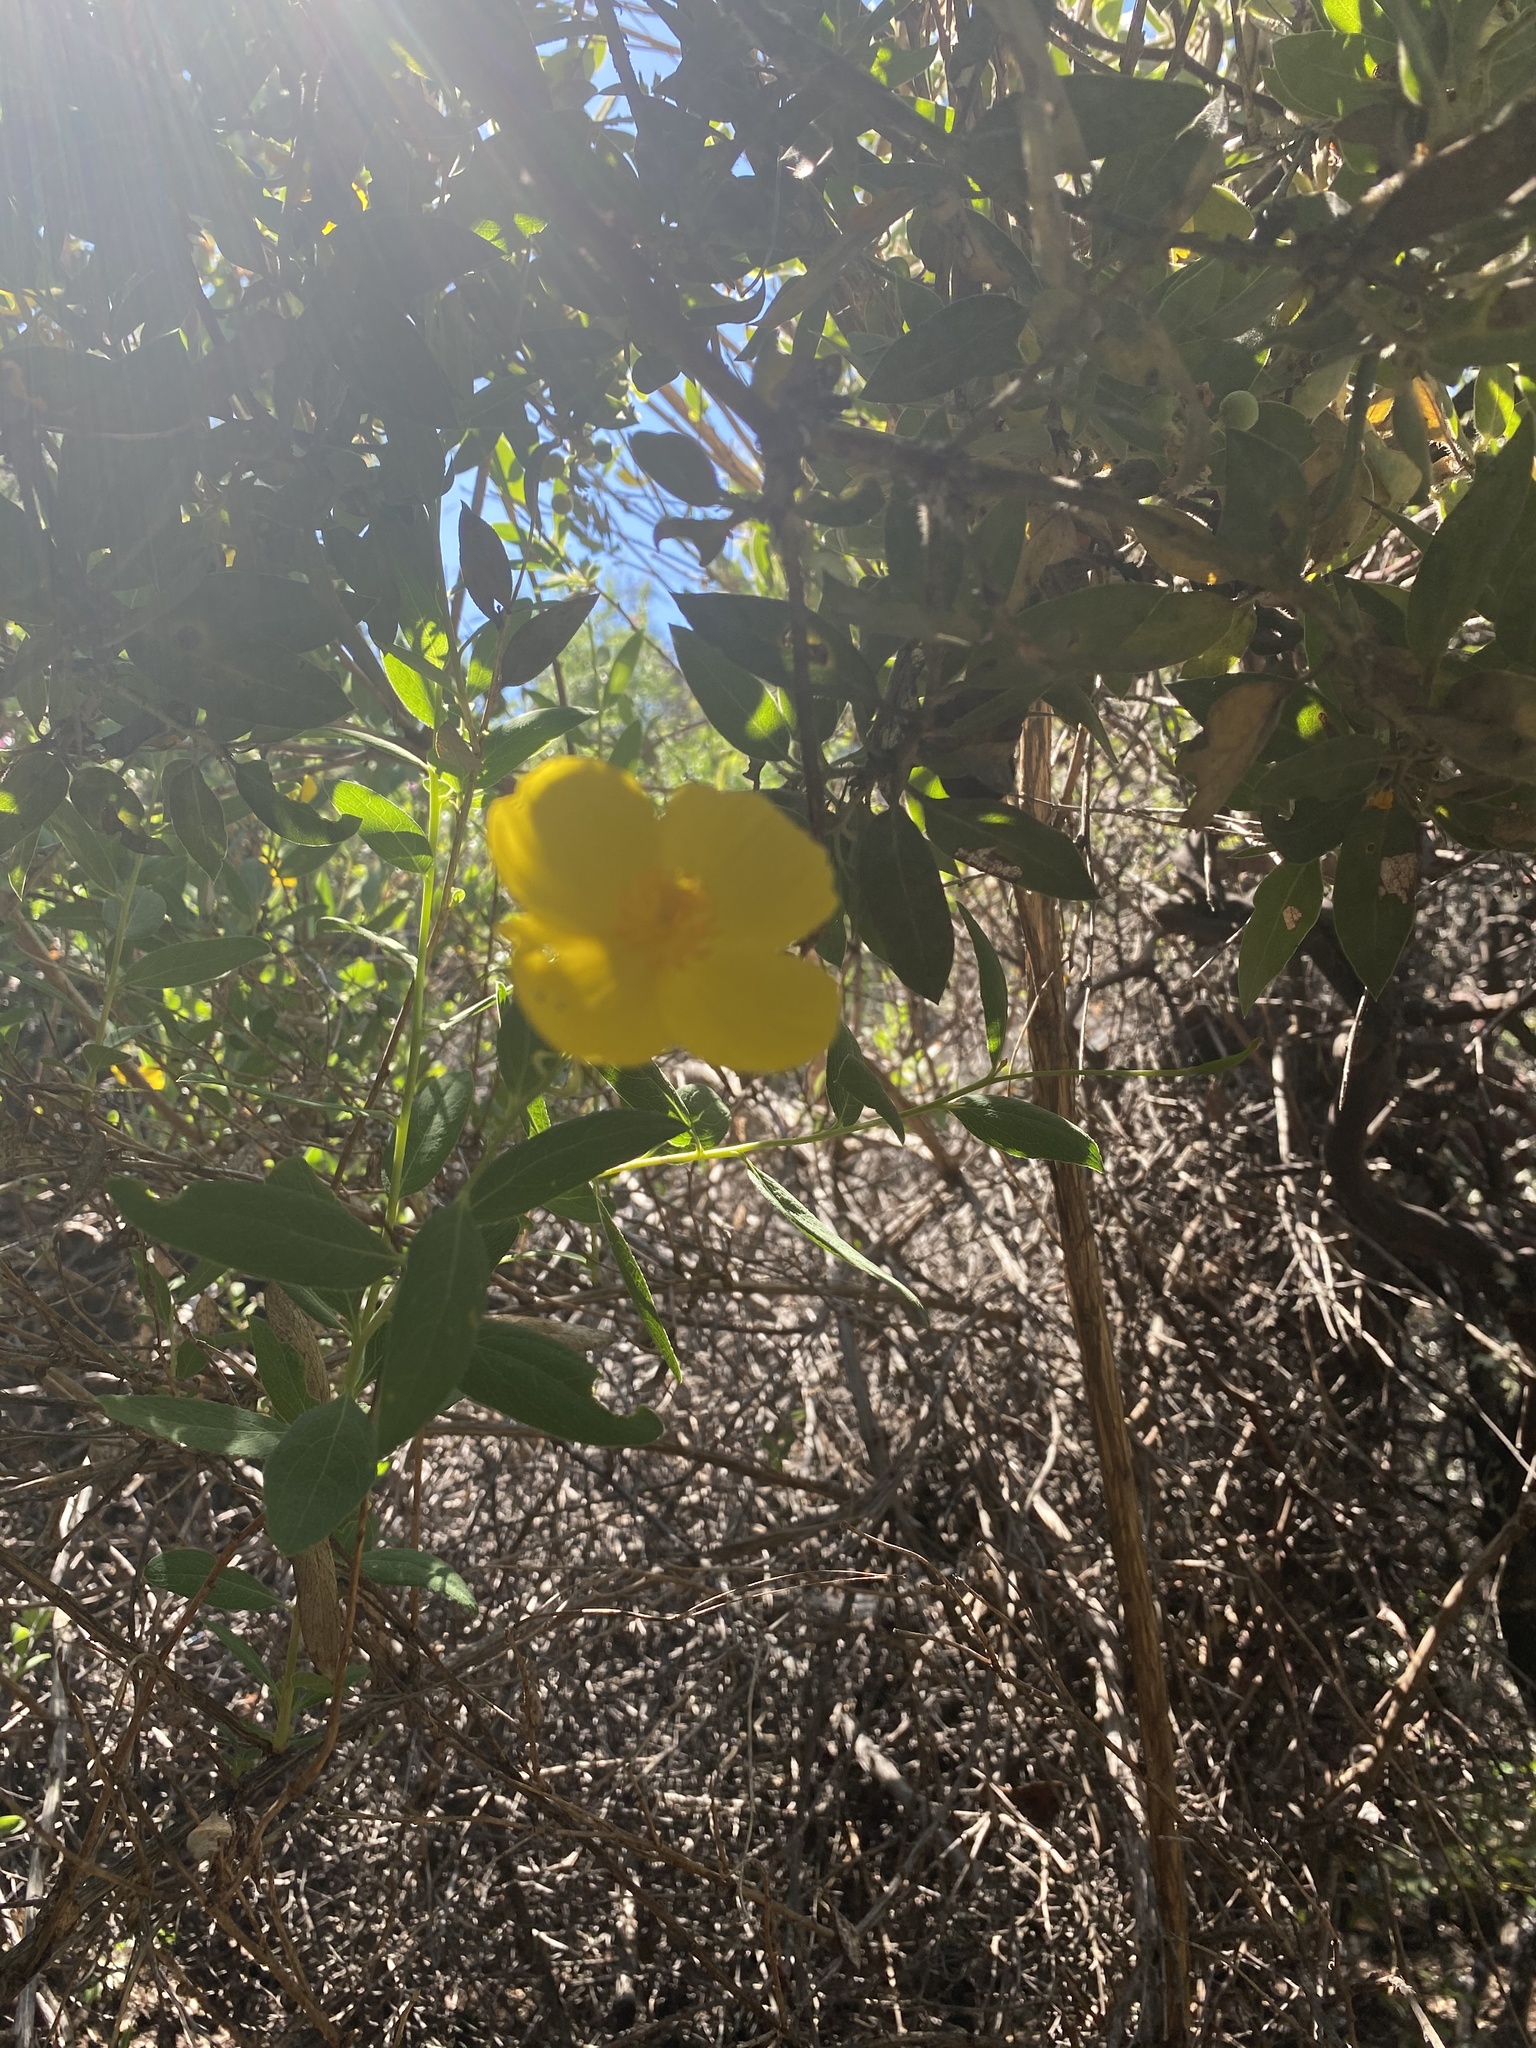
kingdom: Plantae
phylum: Tracheophyta
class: Magnoliopsida
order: Ranunculales
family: Papaveraceae
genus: Dendromecon
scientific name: Dendromecon rigida
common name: Tree poppy
